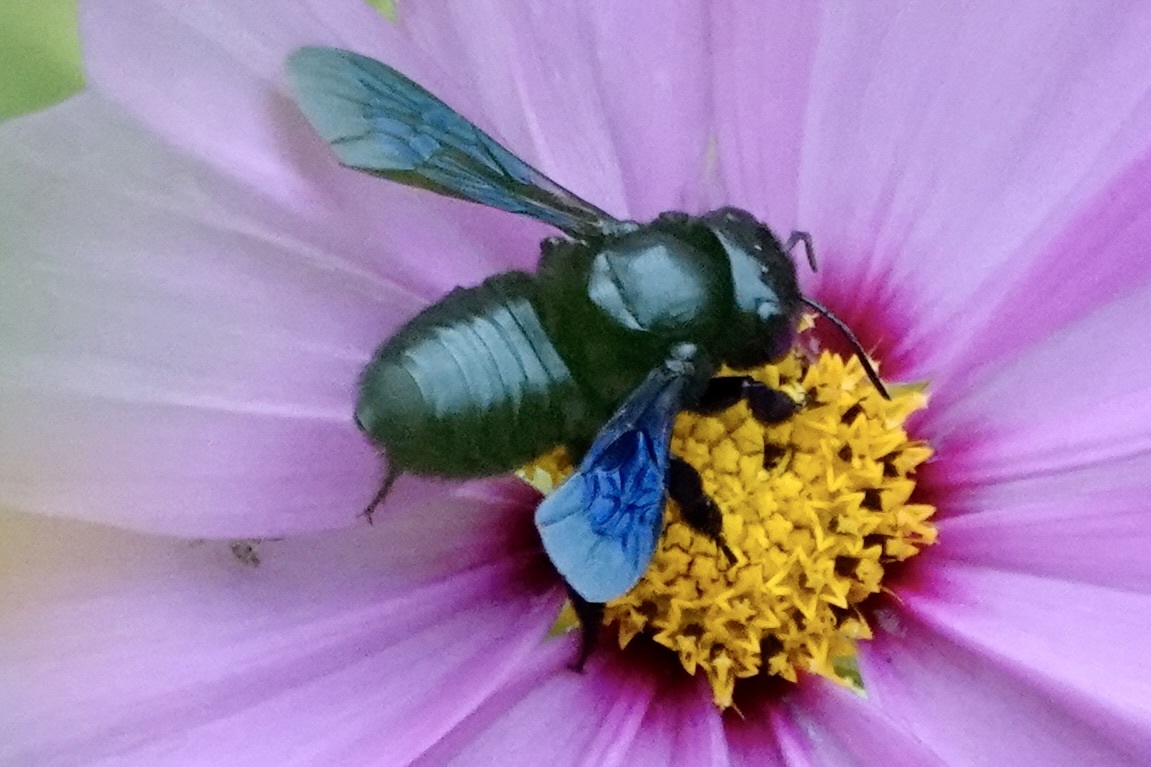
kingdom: Animalia
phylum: Arthropoda
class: Insecta
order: Hymenoptera
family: Megachilidae
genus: Megachile
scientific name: Megachile xylocopoides
